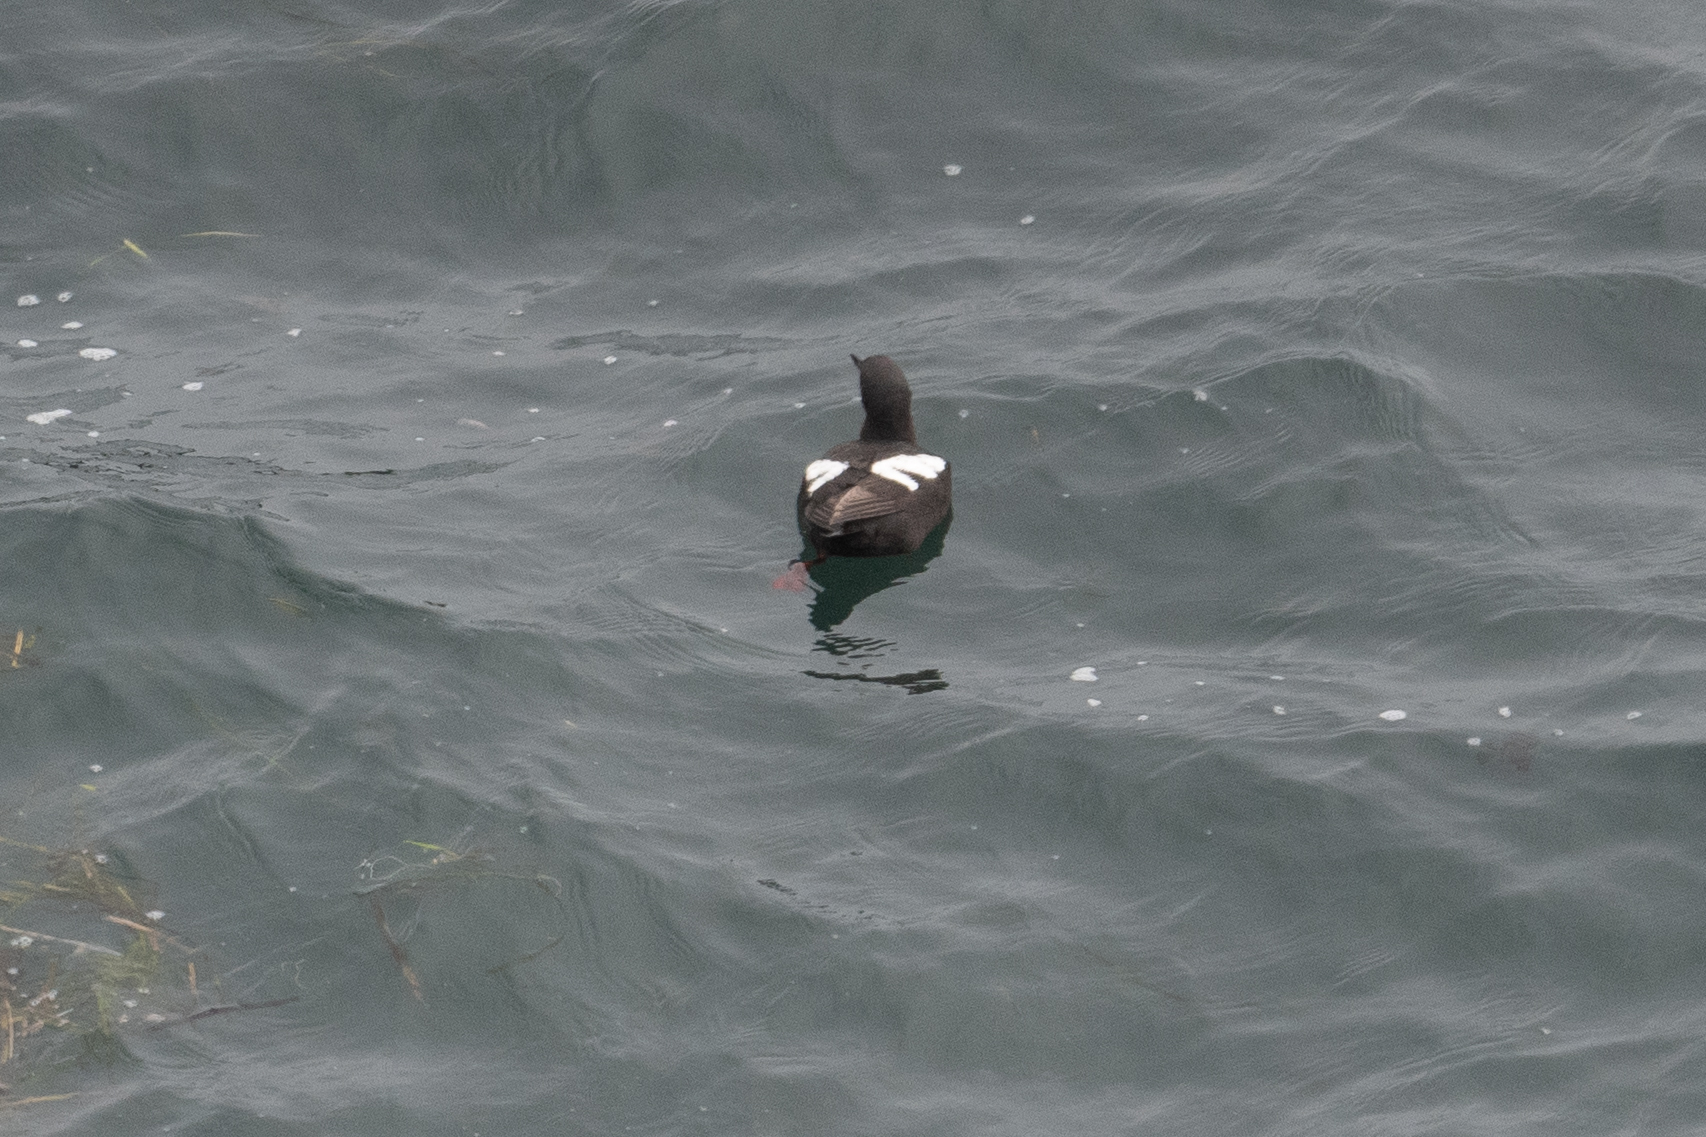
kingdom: Animalia
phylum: Chordata
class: Aves
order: Charadriiformes
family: Alcidae
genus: Cepphus
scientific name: Cepphus columba
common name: Pigeon guillemot
